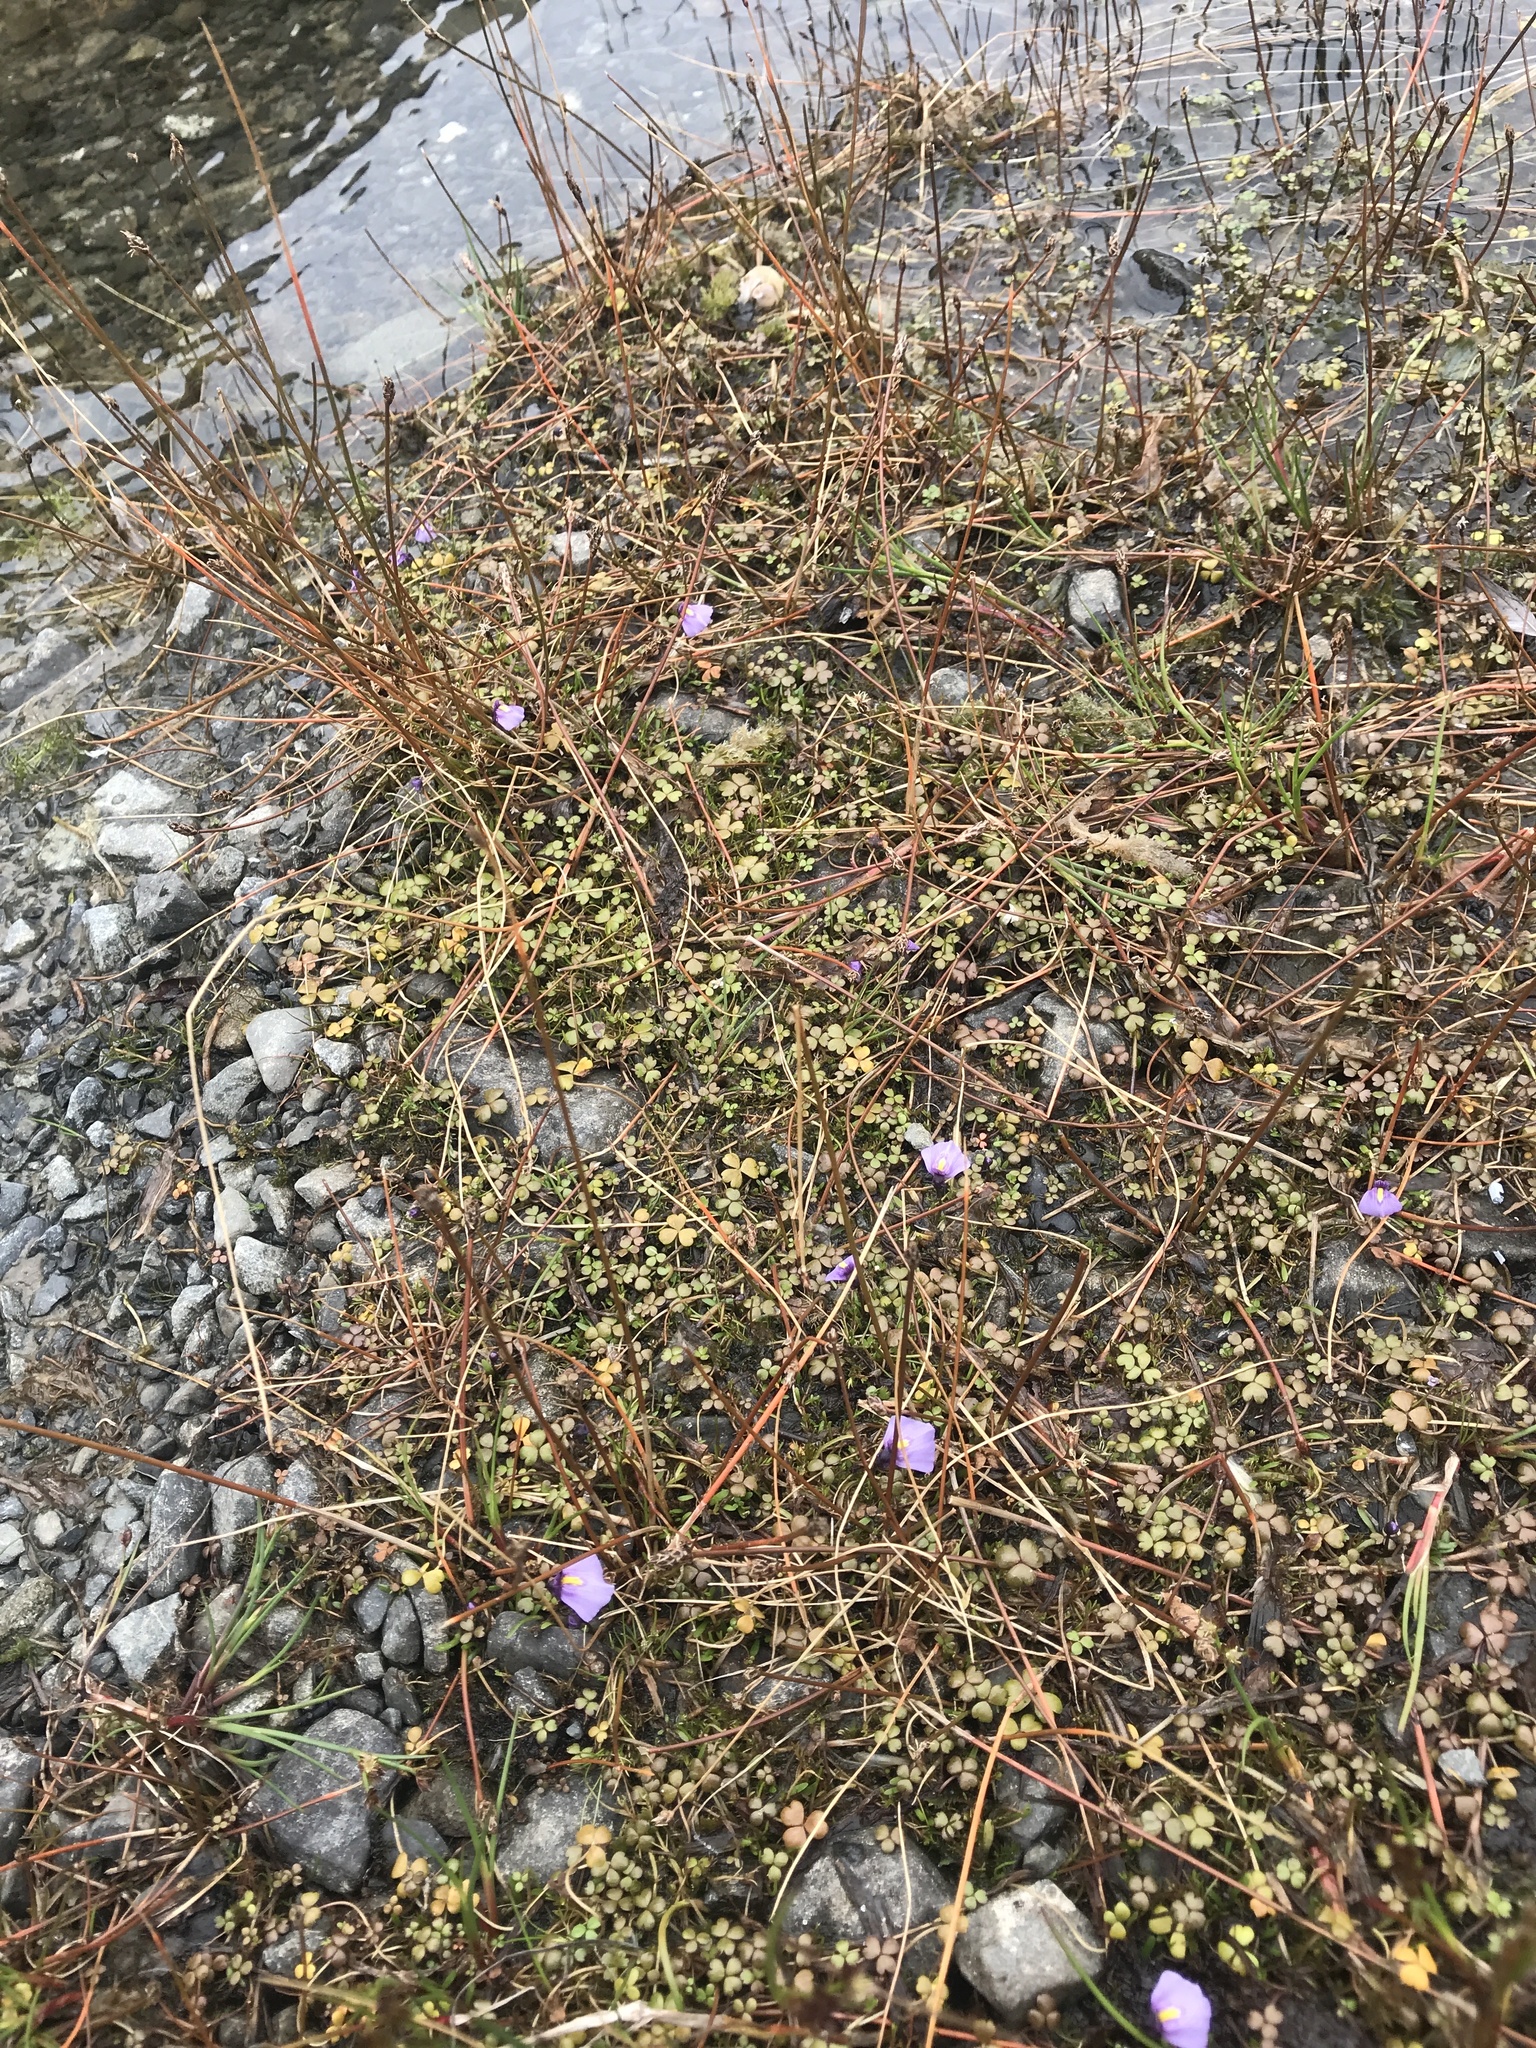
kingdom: Plantae
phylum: Tracheophyta
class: Magnoliopsida
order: Lamiales
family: Lentibulariaceae
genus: Utricularia
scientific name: Utricularia dichotoma
